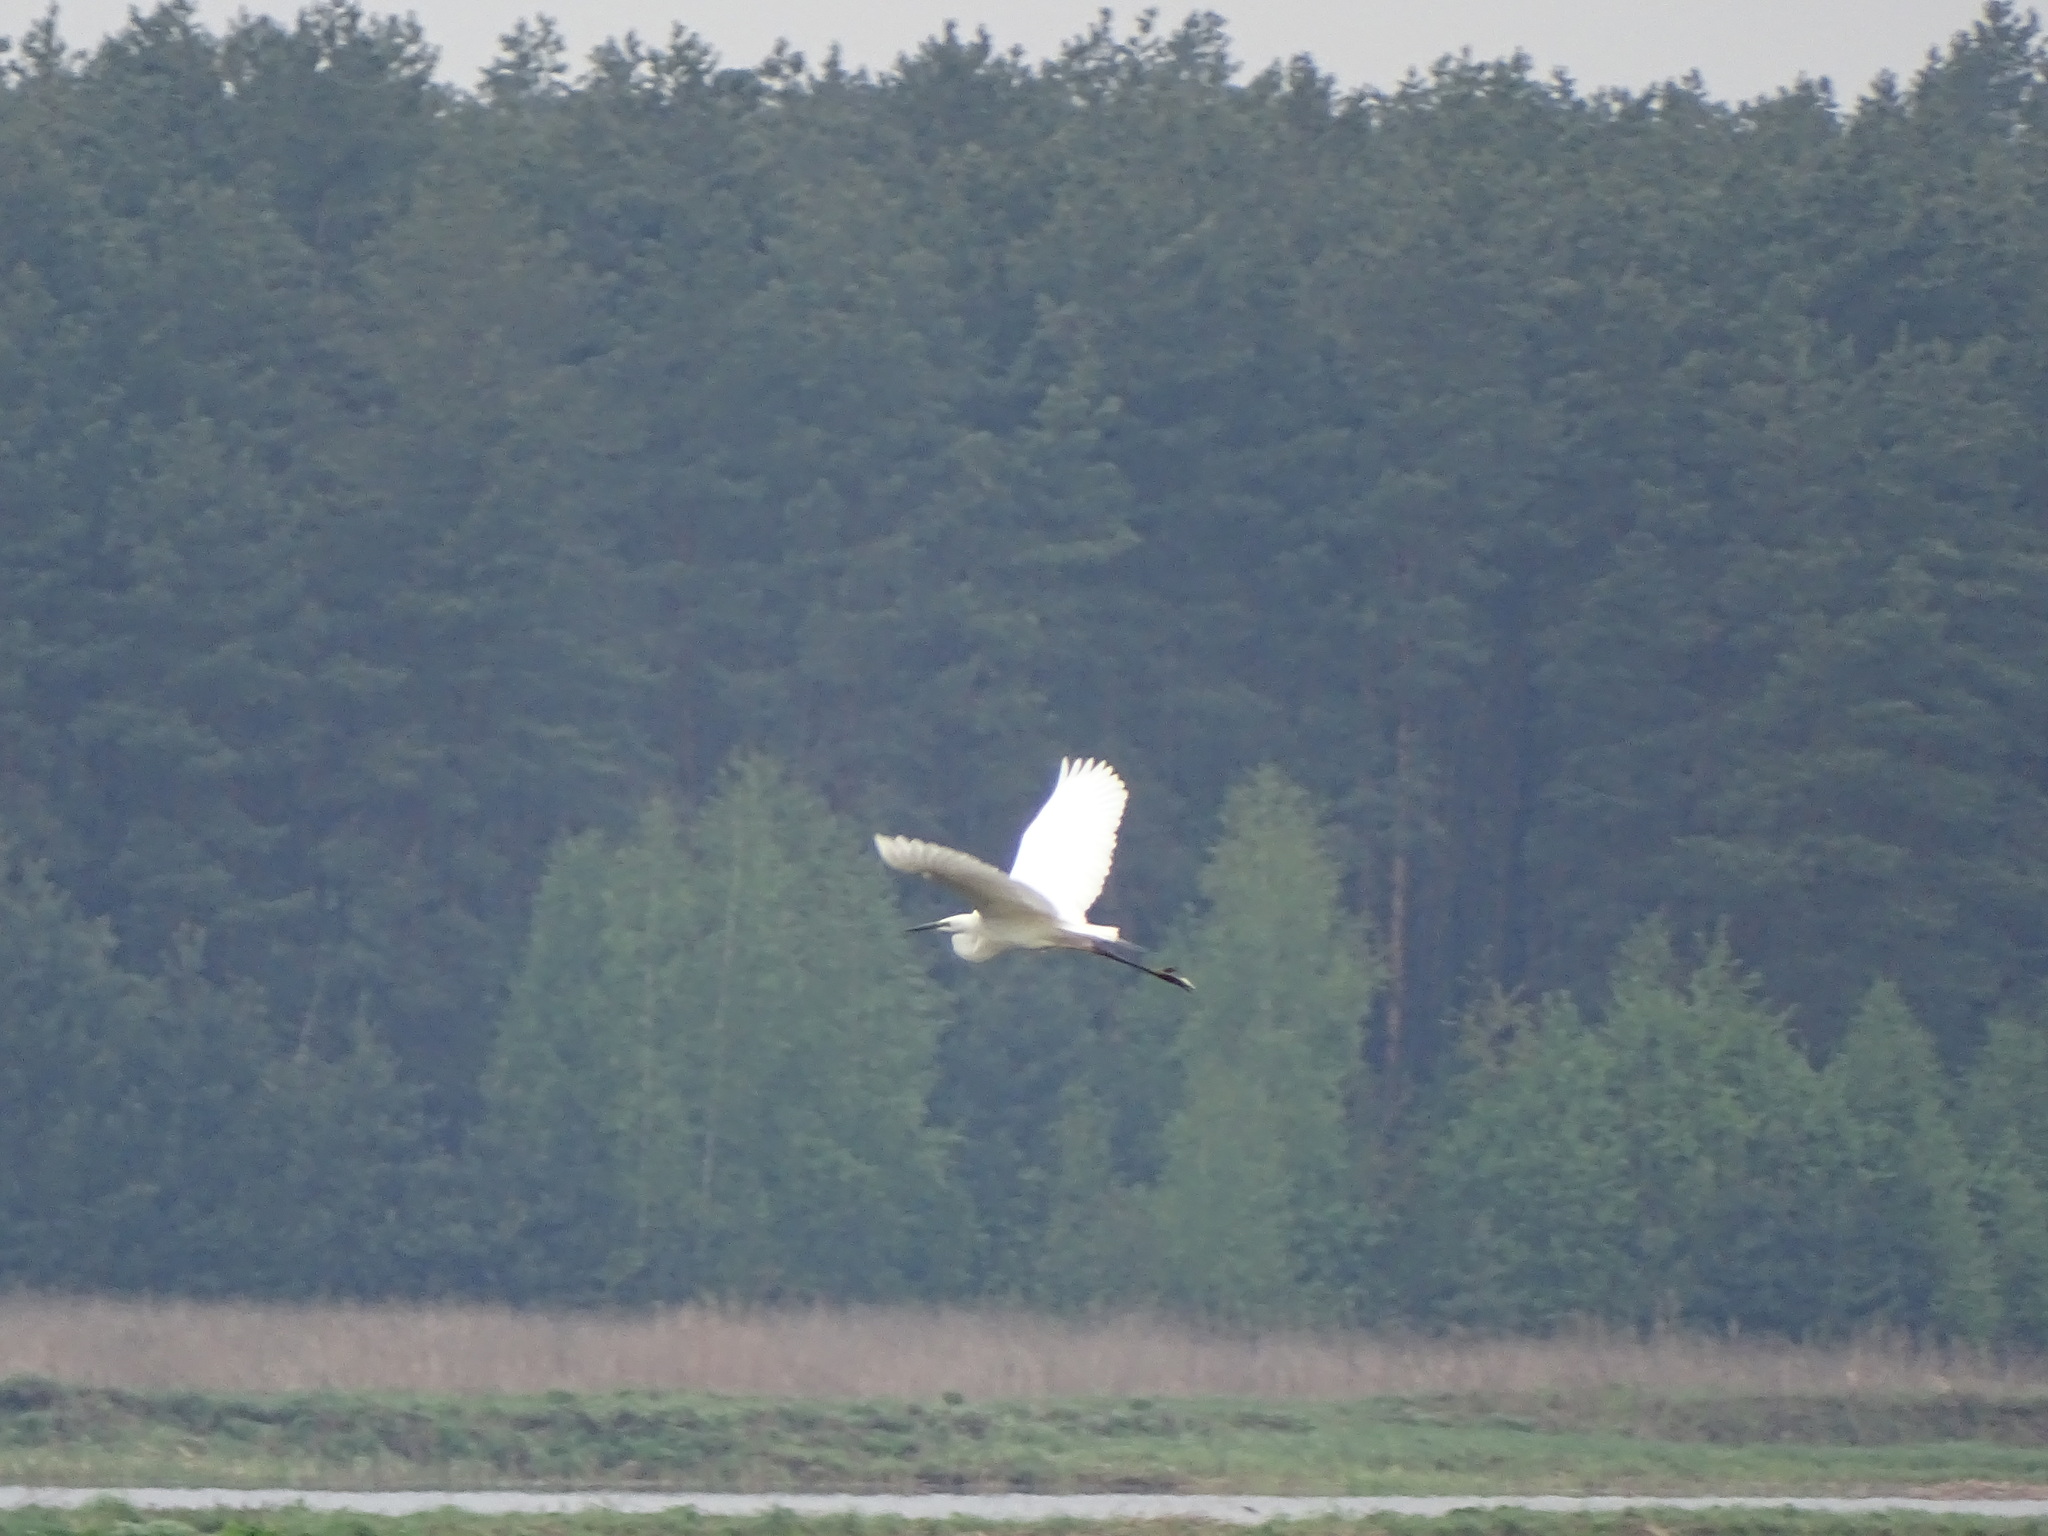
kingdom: Animalia
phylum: Chordata
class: Aves
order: Pelecaniformes
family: Ardeidae
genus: Ardea
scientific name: Ardea alba
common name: Great egret
